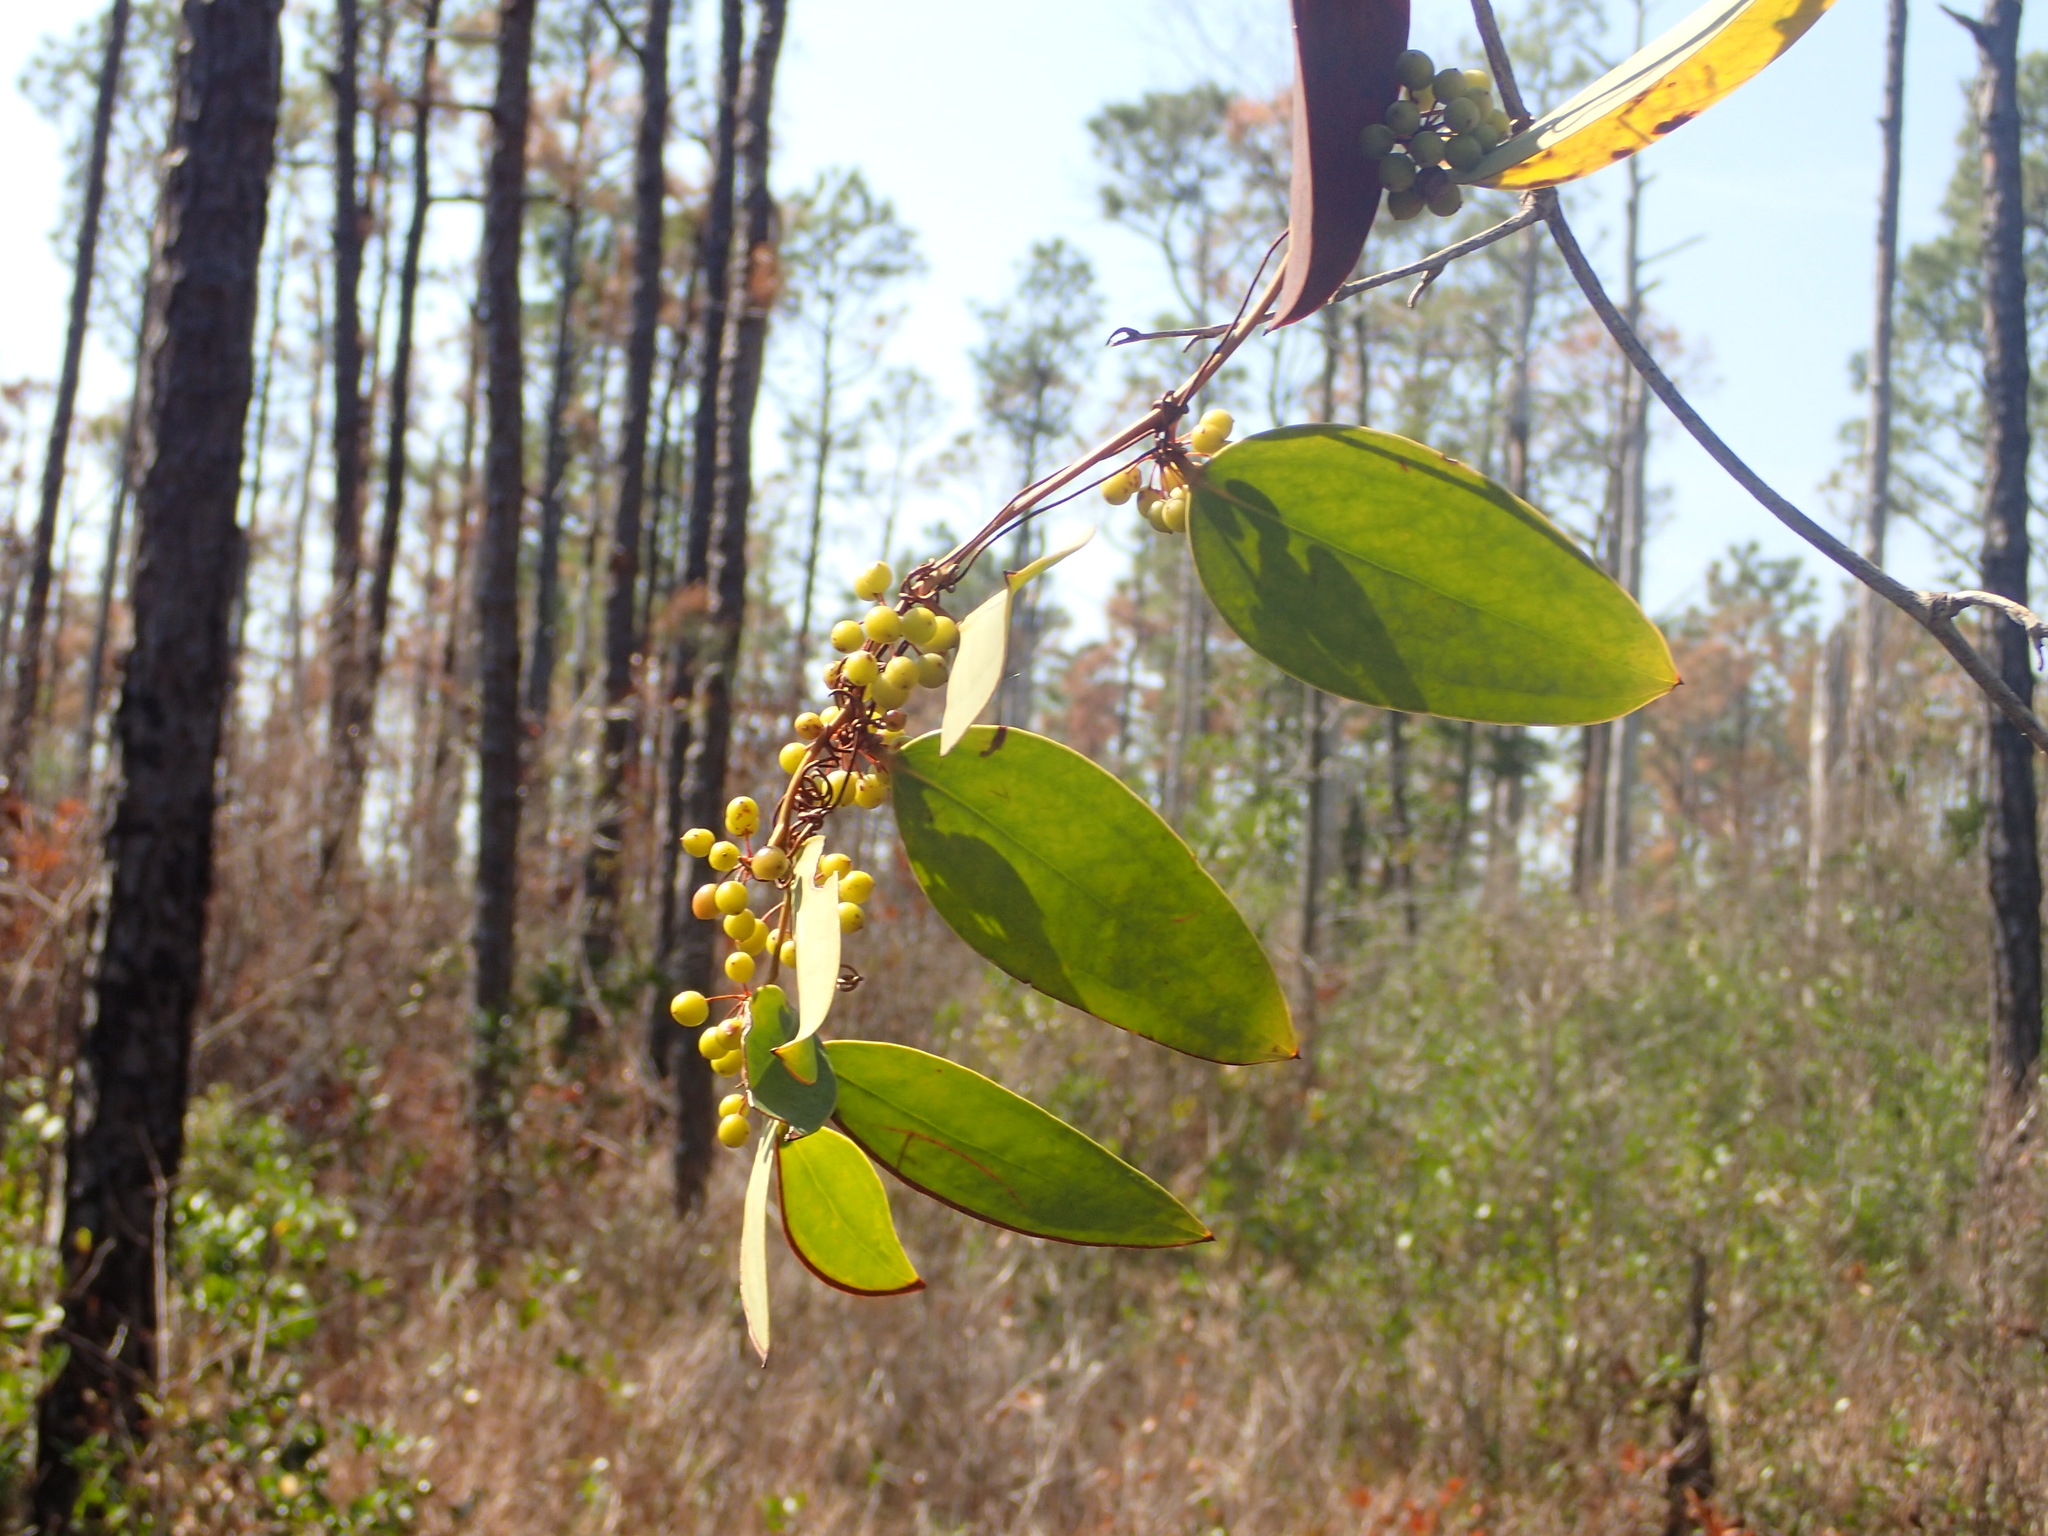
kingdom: Plantae
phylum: Tracheophyta
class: Liliopsida
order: Liliales
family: Smilacaceae
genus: Smilax
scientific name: Smilax laurifolia
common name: Bamboovine
